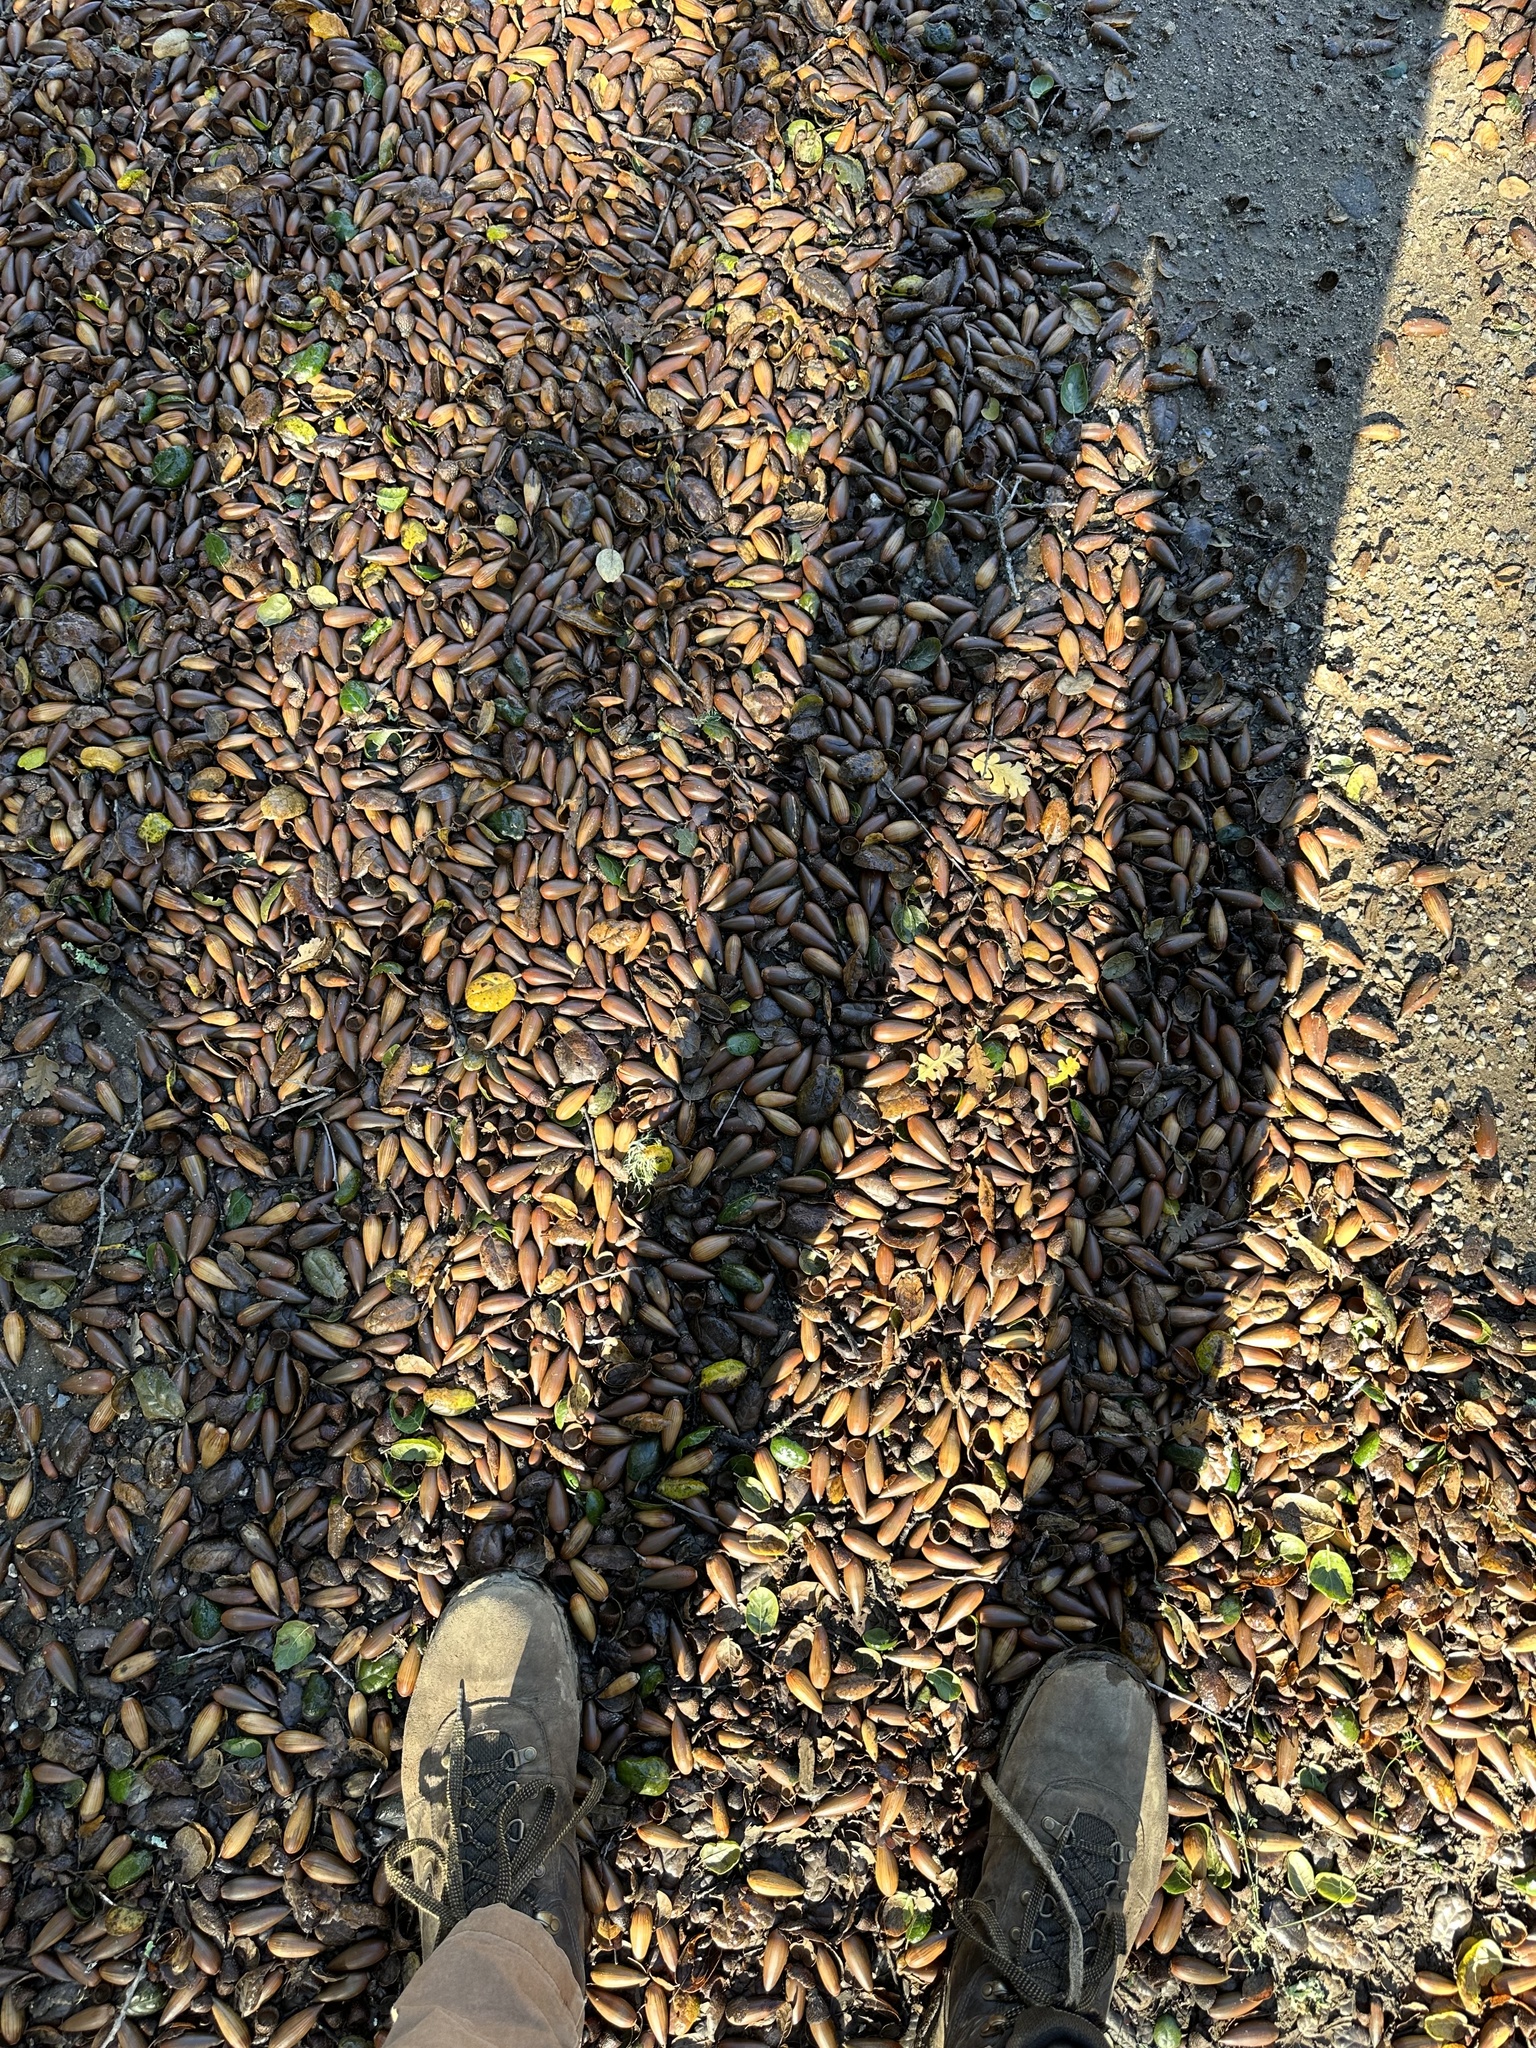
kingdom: Plantae
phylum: Tracheophyta
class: Magnoliopsida
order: Fagales
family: Fagaceae
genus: Quercus
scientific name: Quercus agrifolia
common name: California live oak
